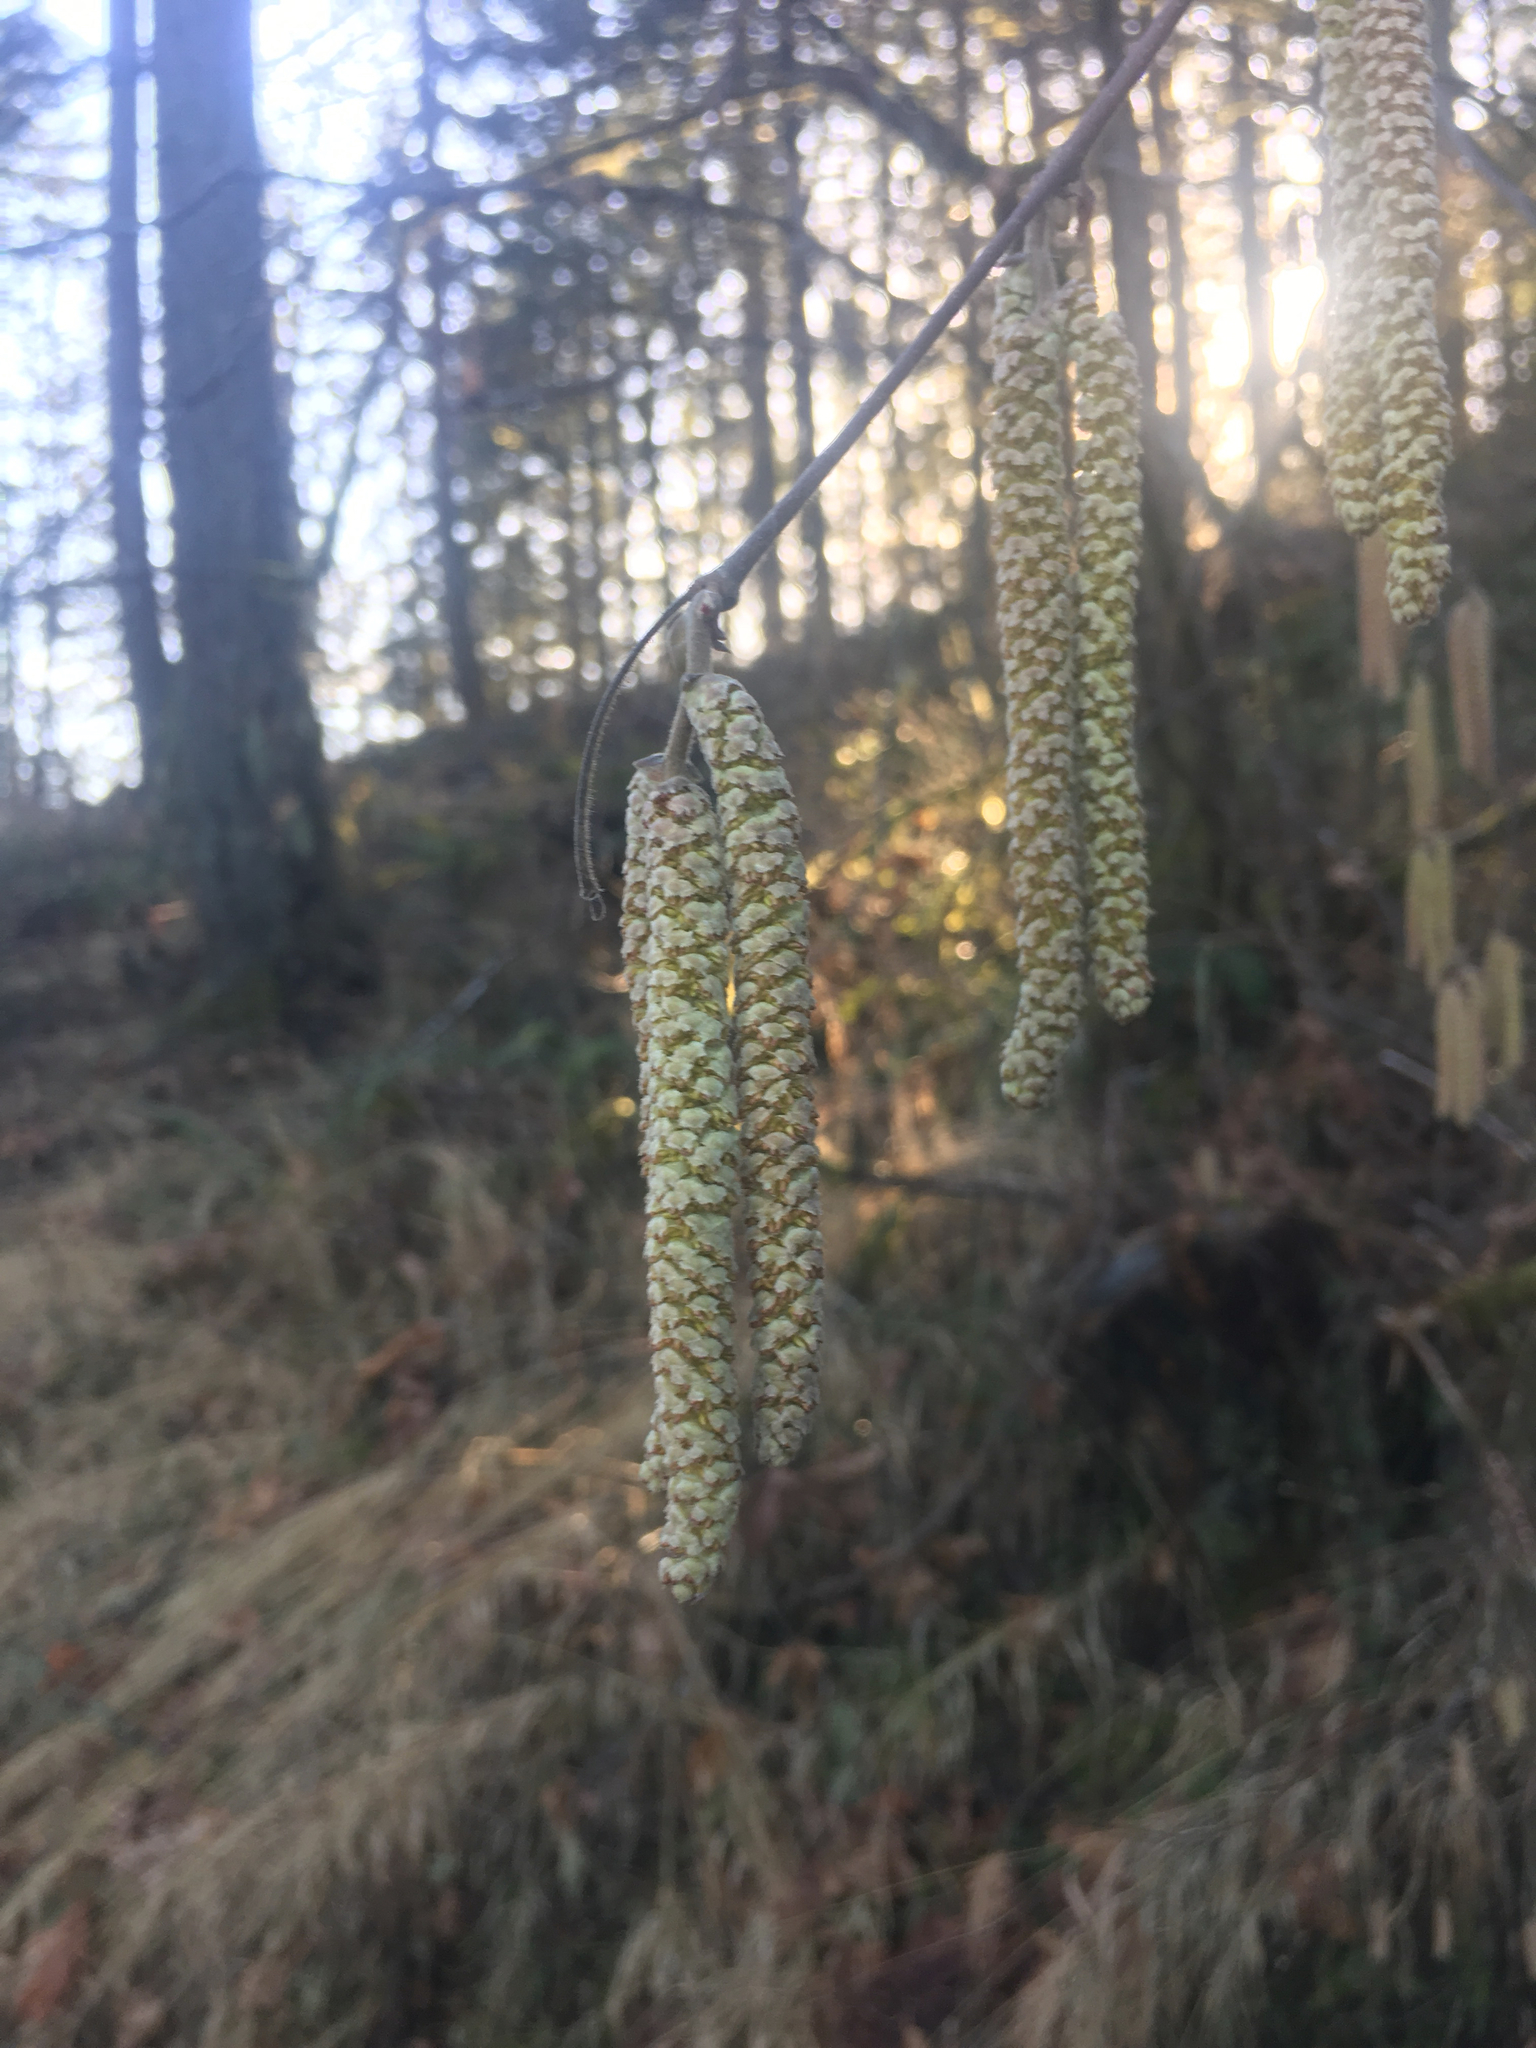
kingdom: Plantae
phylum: Tracheophyta
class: Magnoliopsida
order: Fagales
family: Betulaceae
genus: Corylus
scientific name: Corylus cornuta
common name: Beaked hazel
